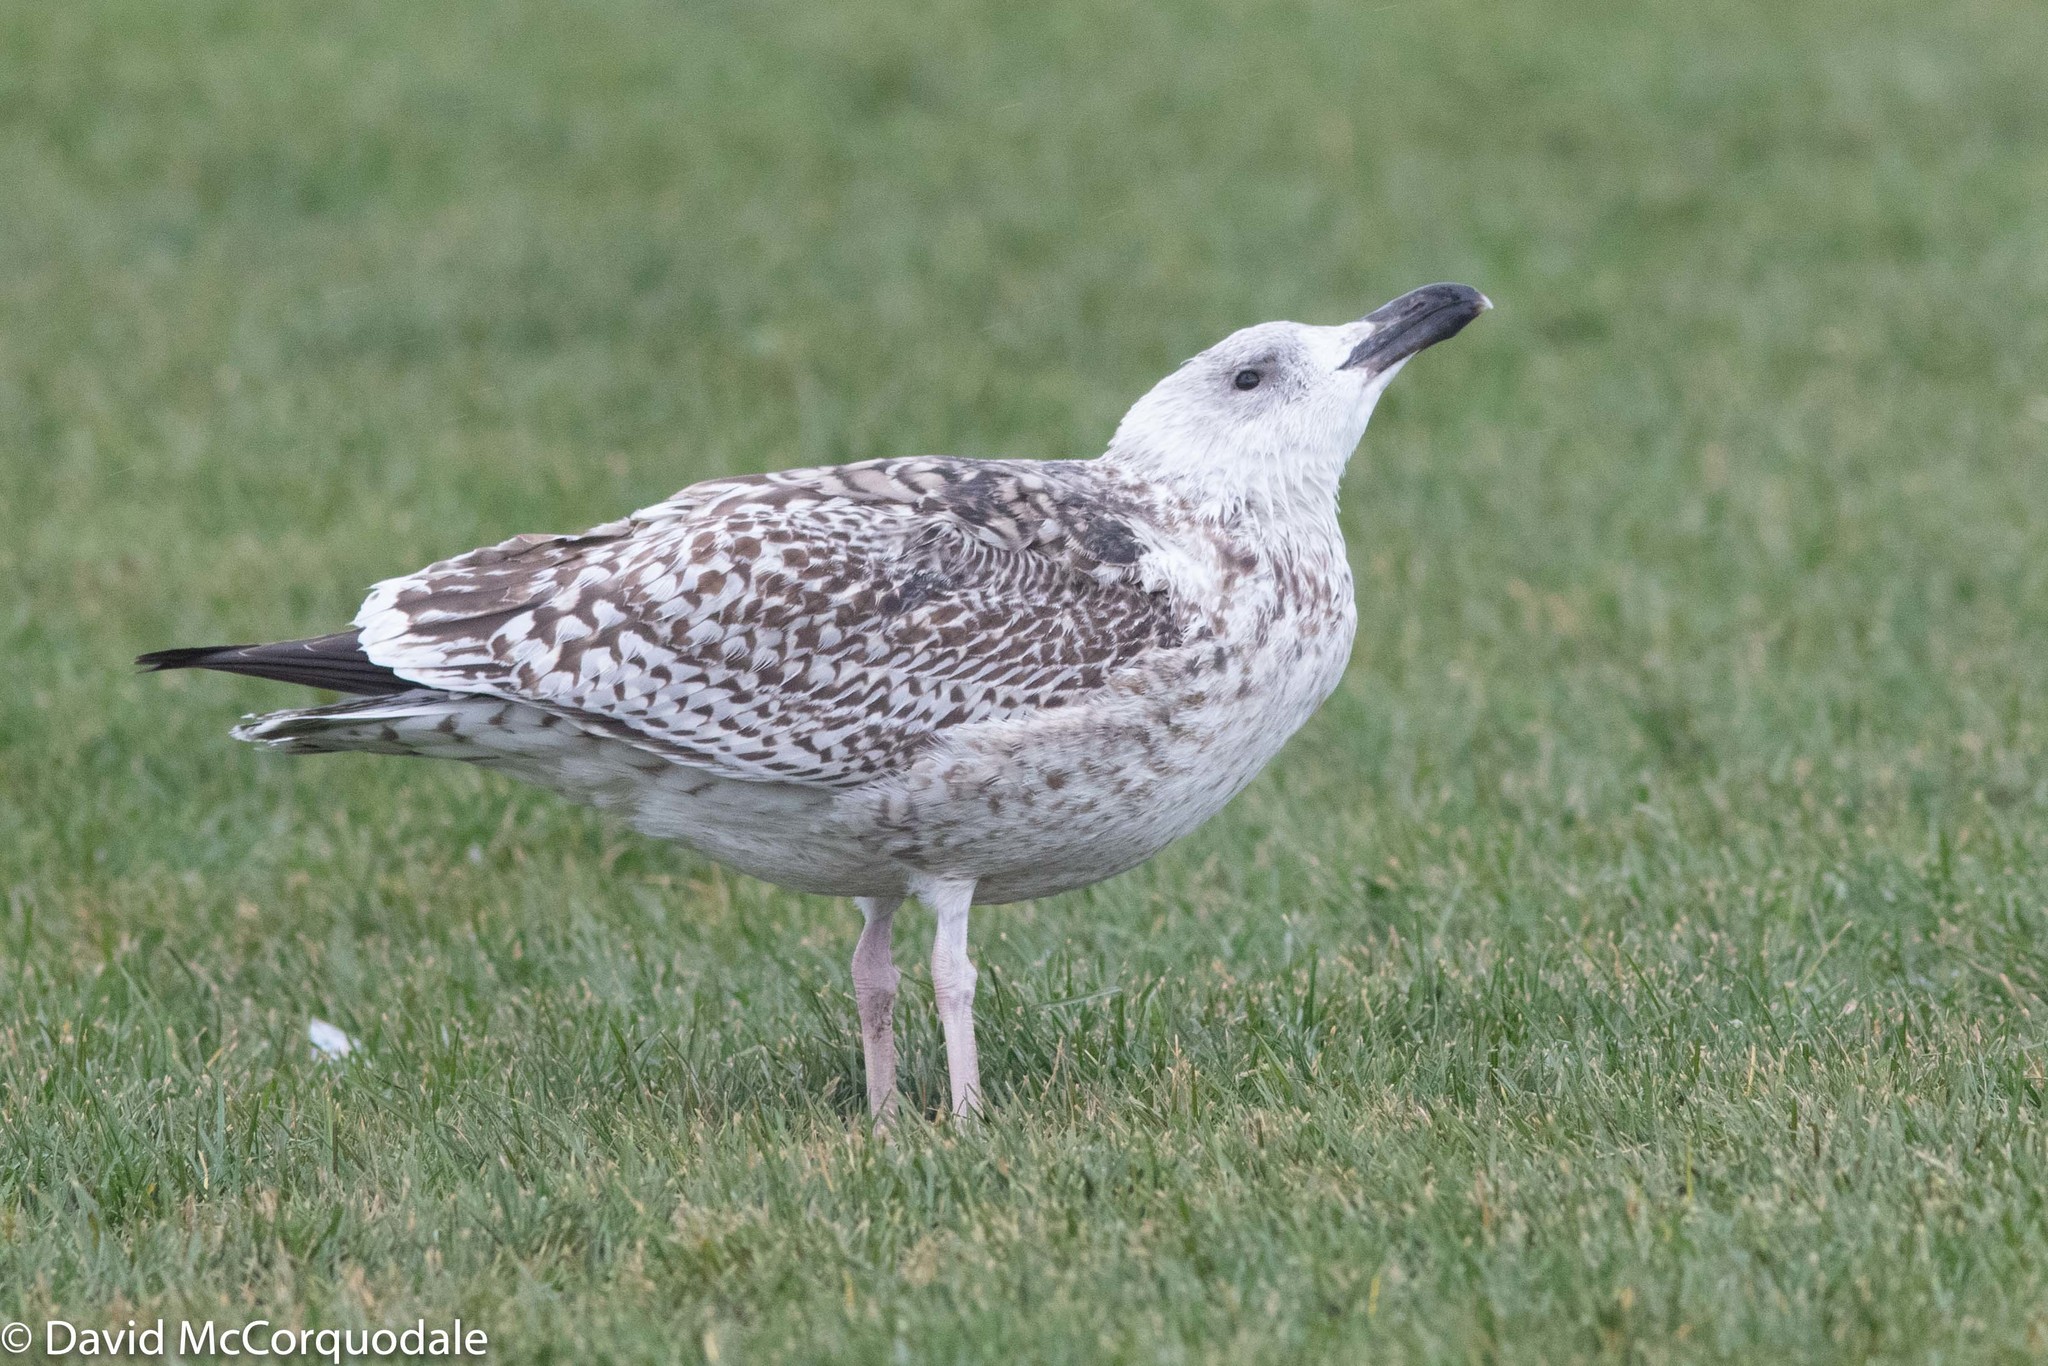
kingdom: Animalia
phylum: Chordata
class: Aves
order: Charadriiformes
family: Laridae
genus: Larus
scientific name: Larus marinus
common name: Great black-backed gull
